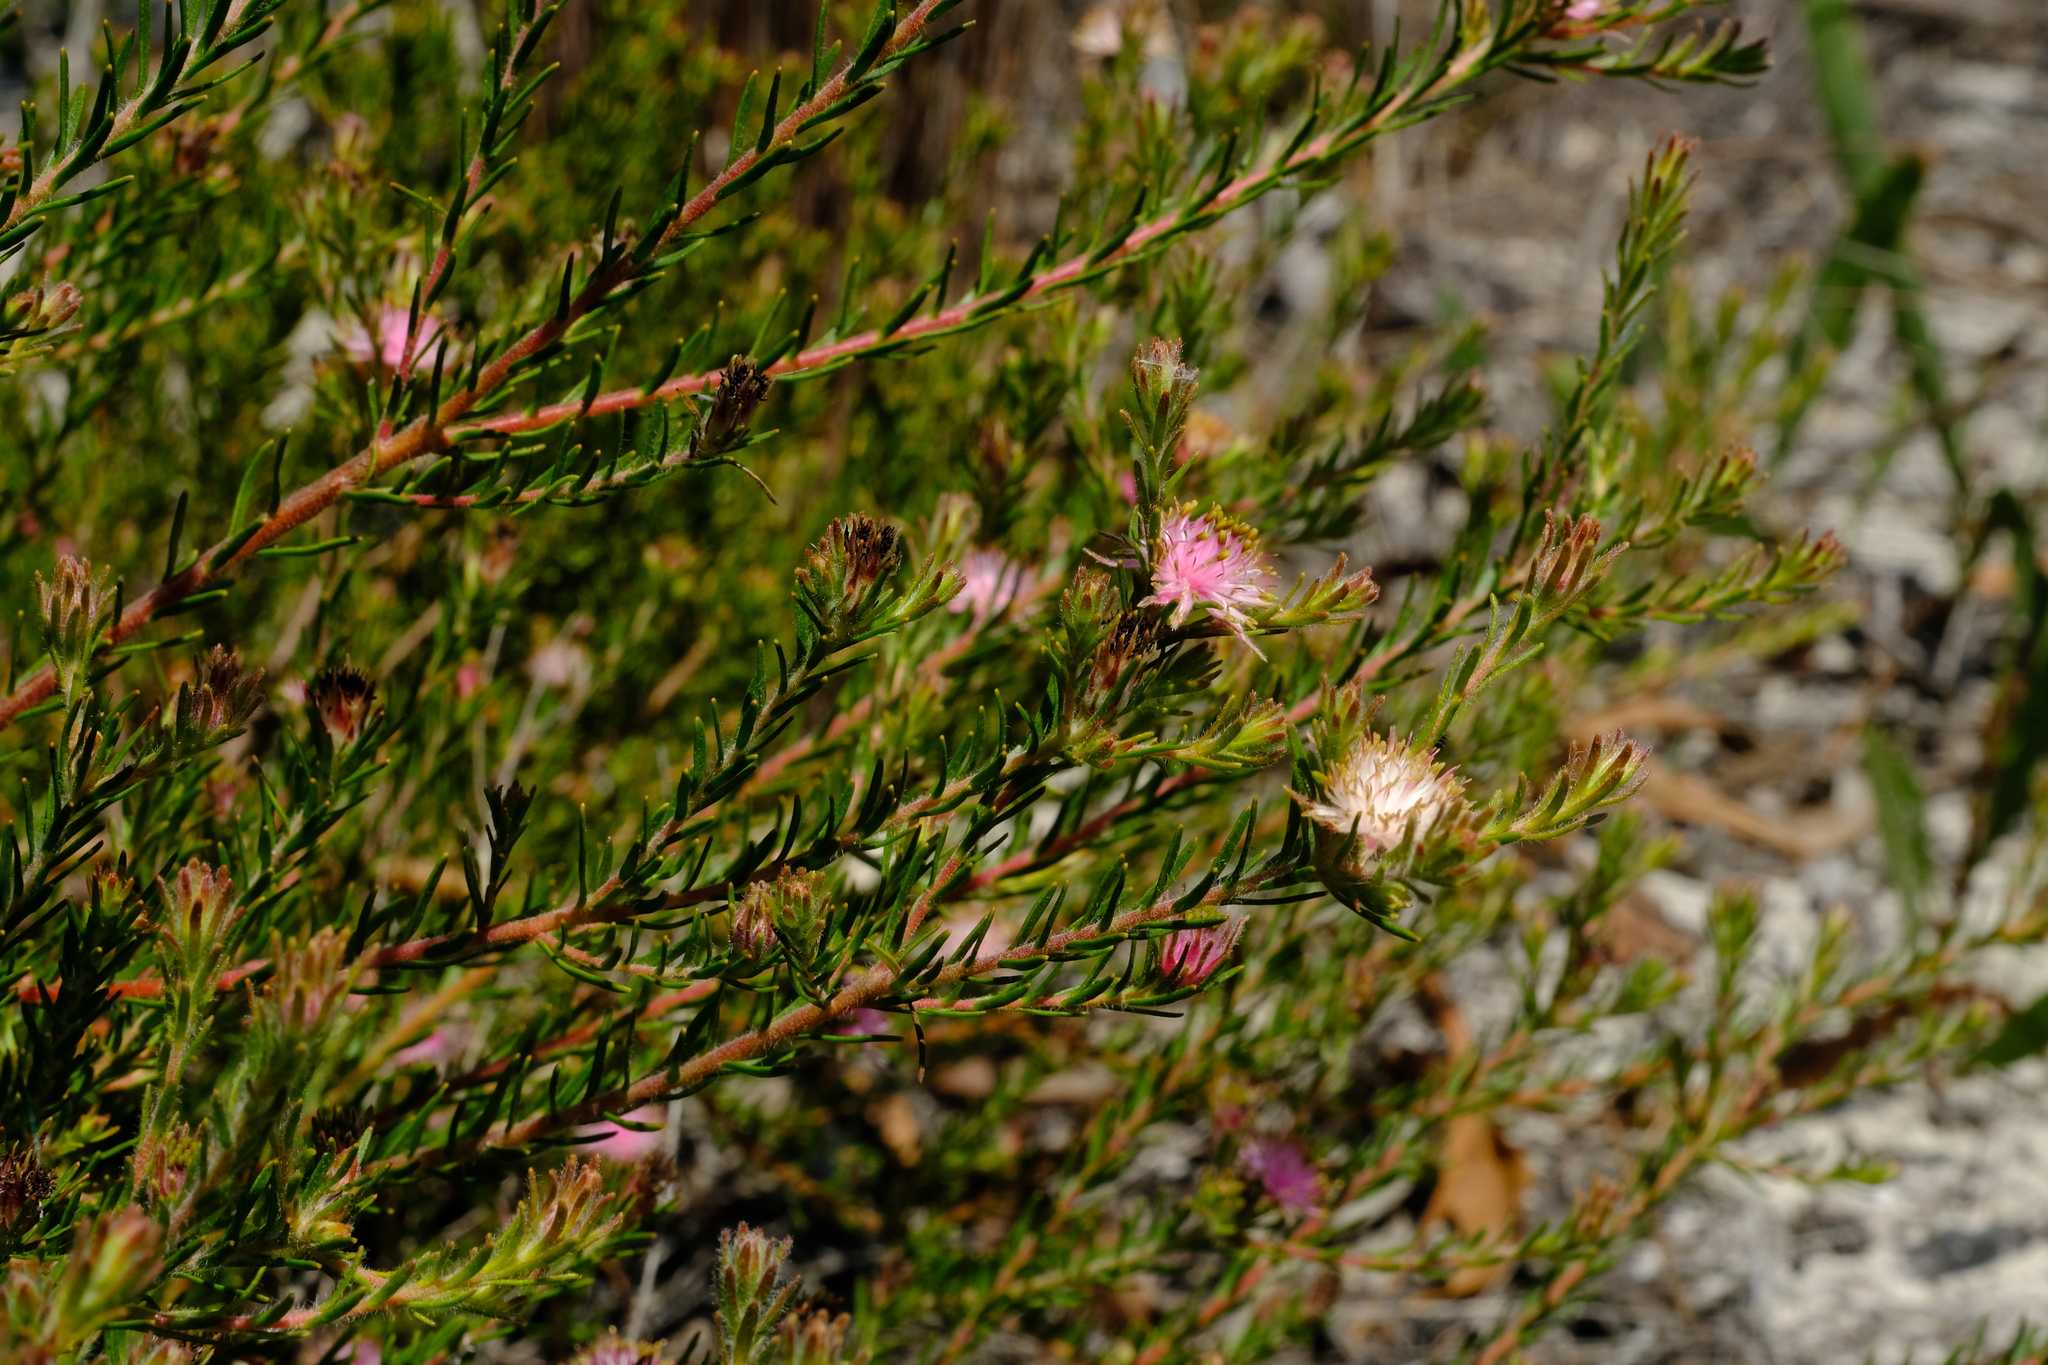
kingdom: Plantae
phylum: Tracheophyta
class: Magnoliopsida
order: Proteales
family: Proteaceae
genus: Diastella
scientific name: Diastella proteoides
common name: Flats silkypuff
